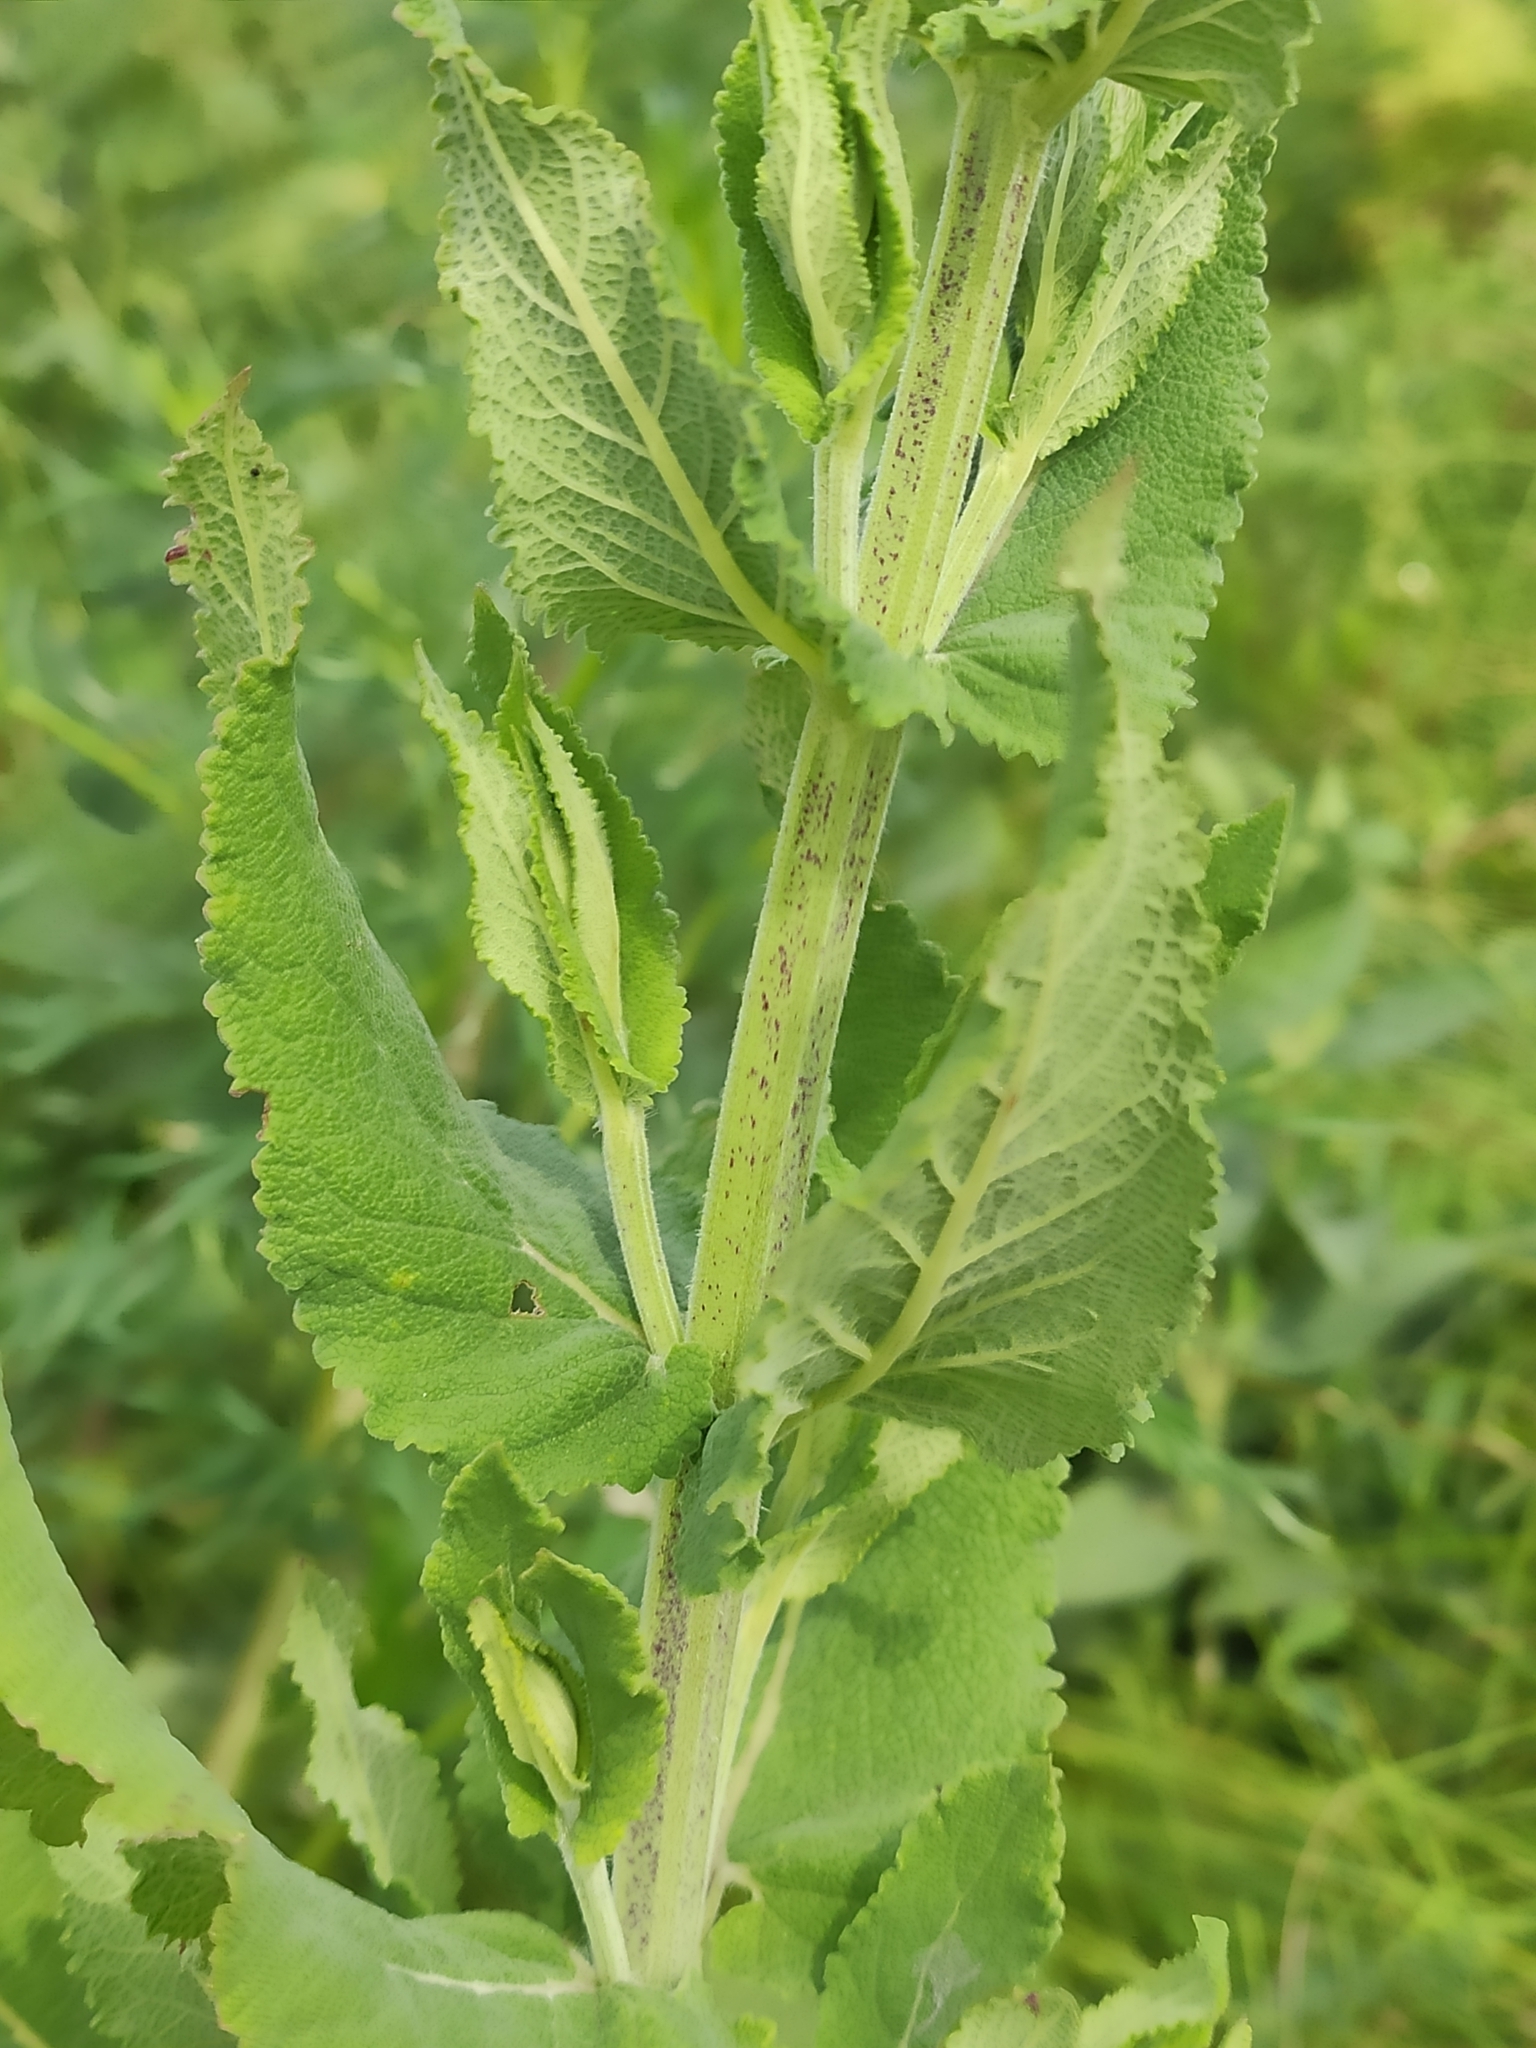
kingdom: Plantae
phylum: Tracheophyta
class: Magnoliopsida
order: Lamiales
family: Lamiaceae
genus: Salvia
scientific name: Salvia nemorosa
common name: Balkan clary
